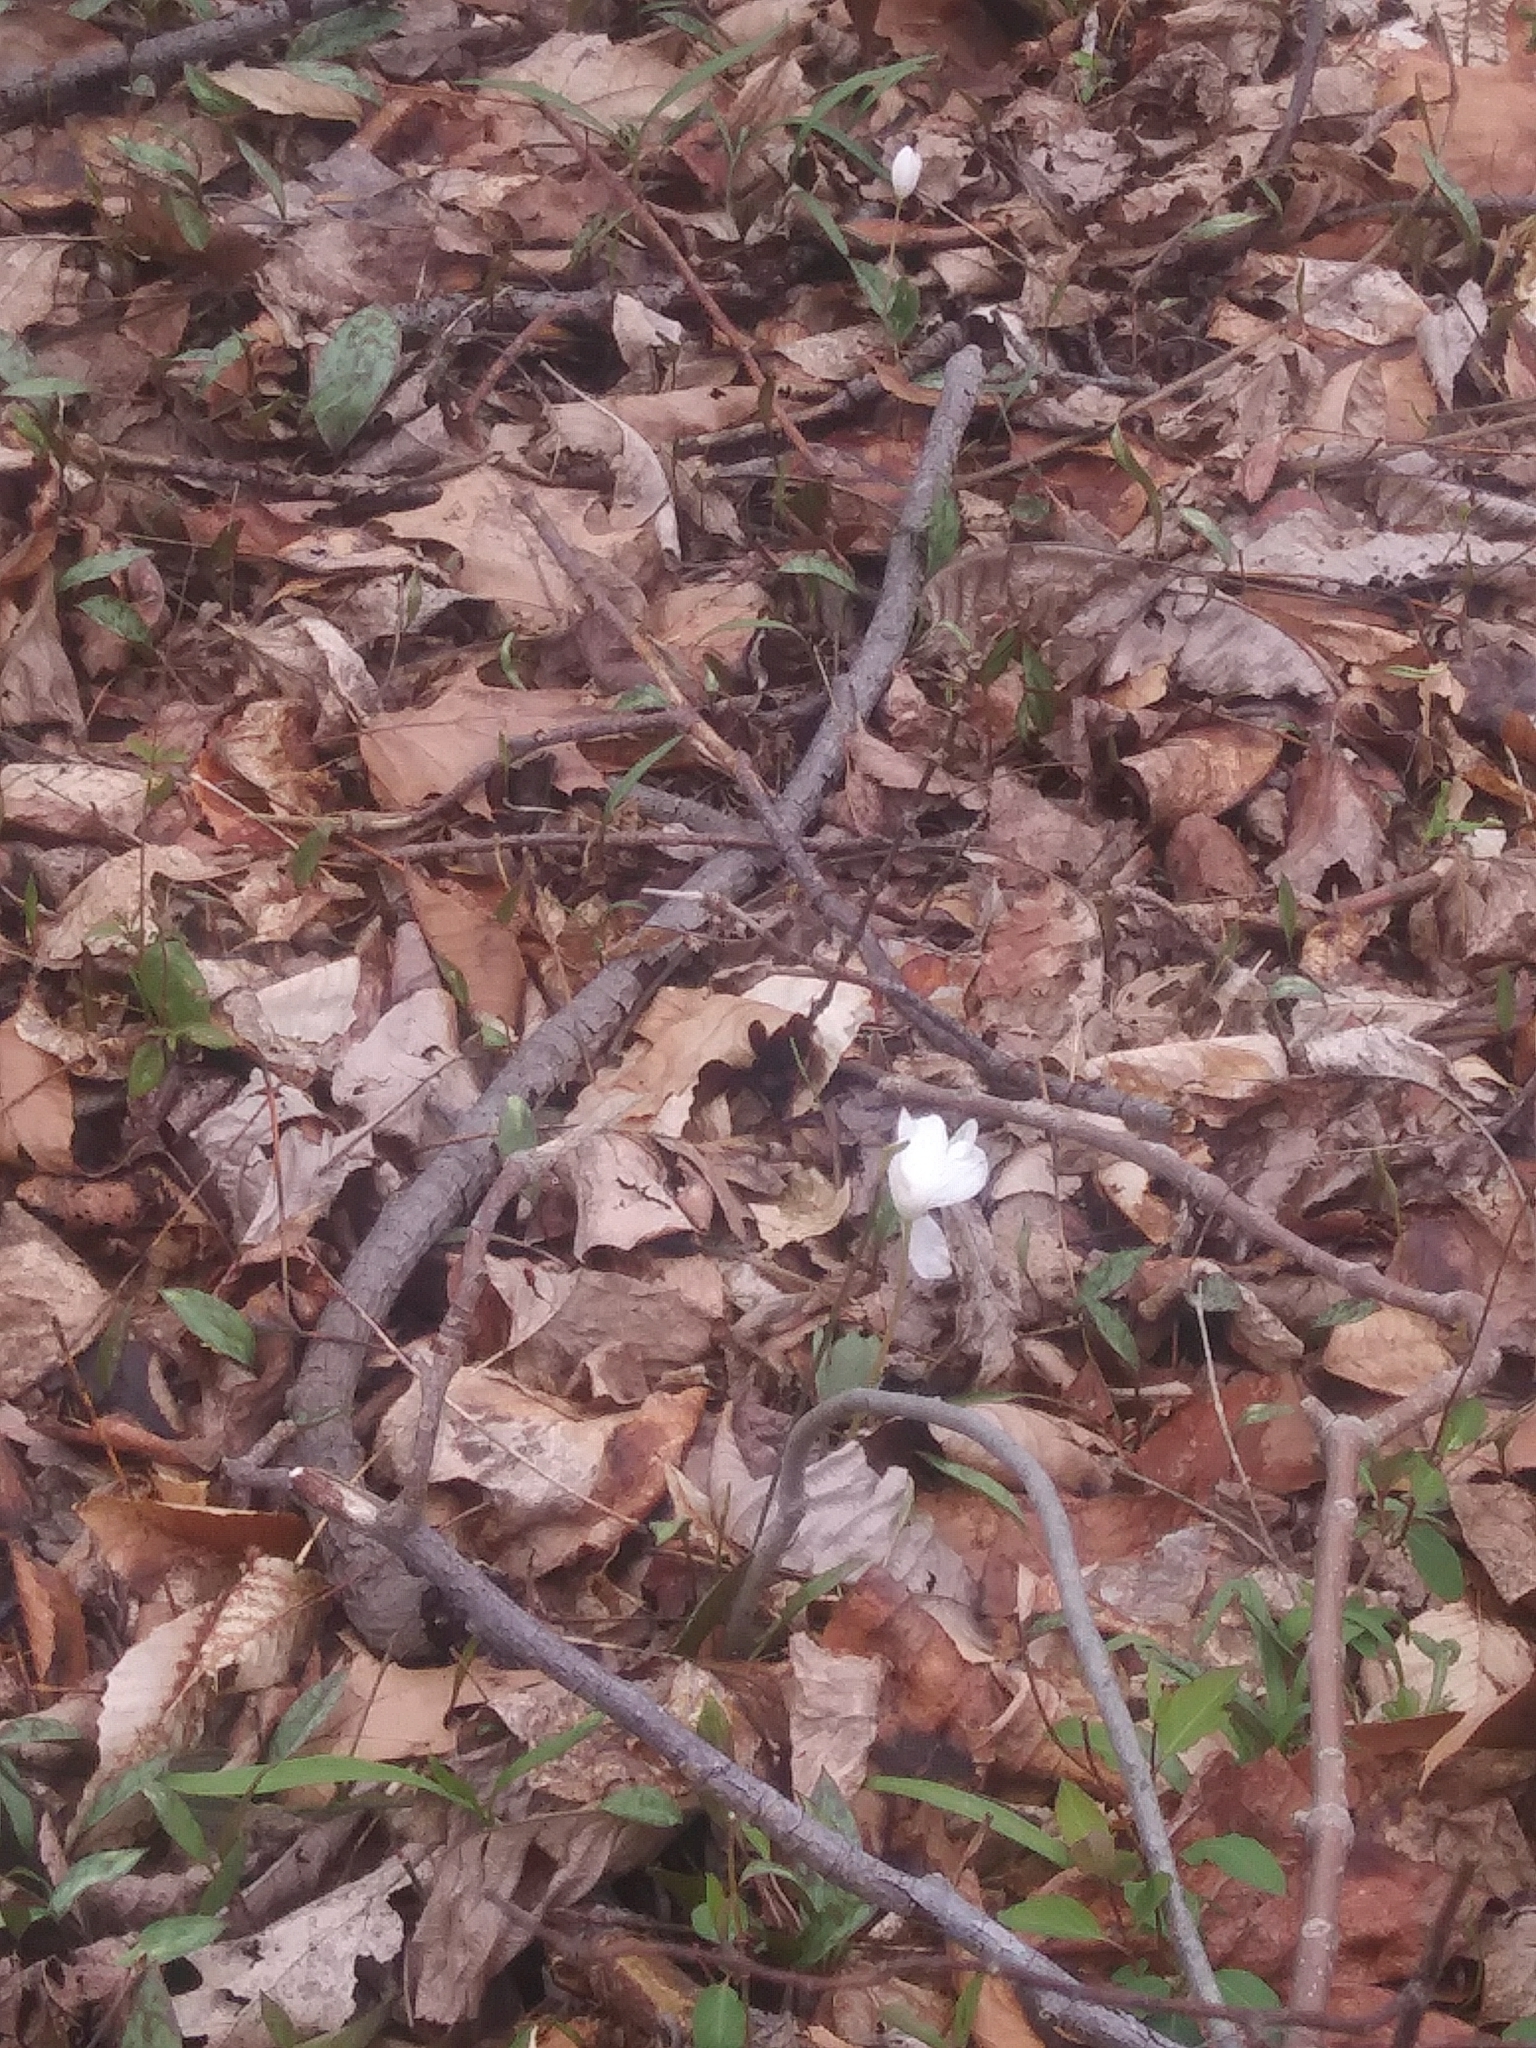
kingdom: Plantae
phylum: Tracheophyta
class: Magnoliopsida
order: Ranunculales
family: Papaveraceae
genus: Sanguinaria
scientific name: Sanguinaria canadensis
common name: Bloodroot
